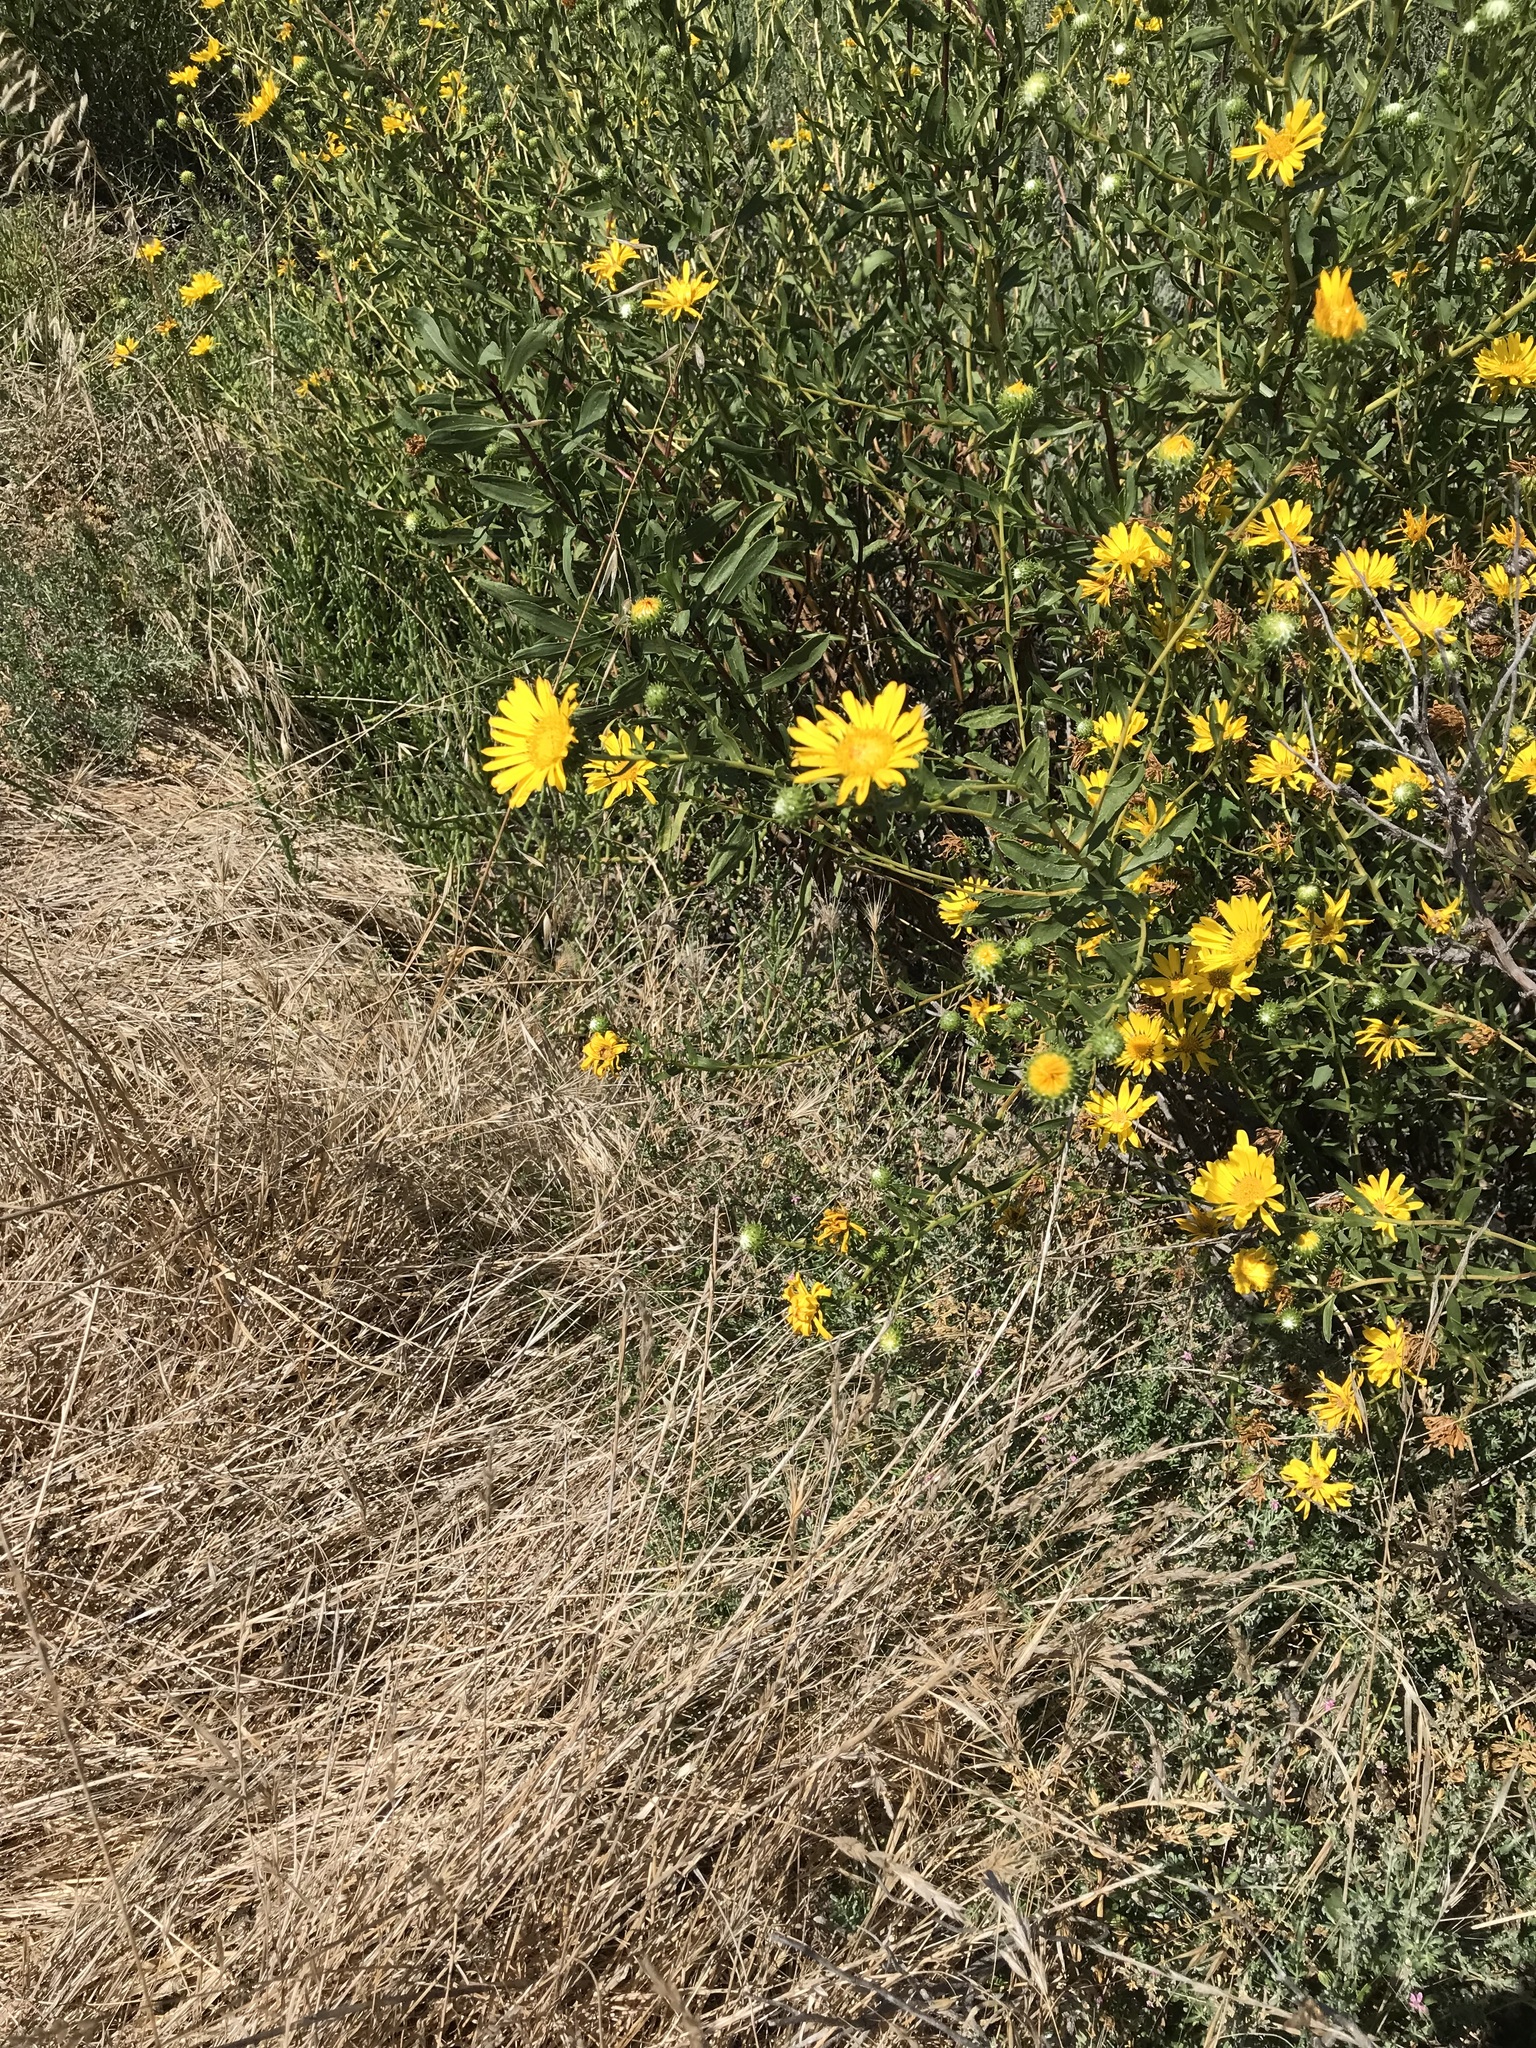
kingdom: Plantae
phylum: Tracheophyta
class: Magnoliopsida
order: Asterales
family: Asteraceae
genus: Grindelia
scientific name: Grindelia hirsutula
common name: Hairy gumweed
